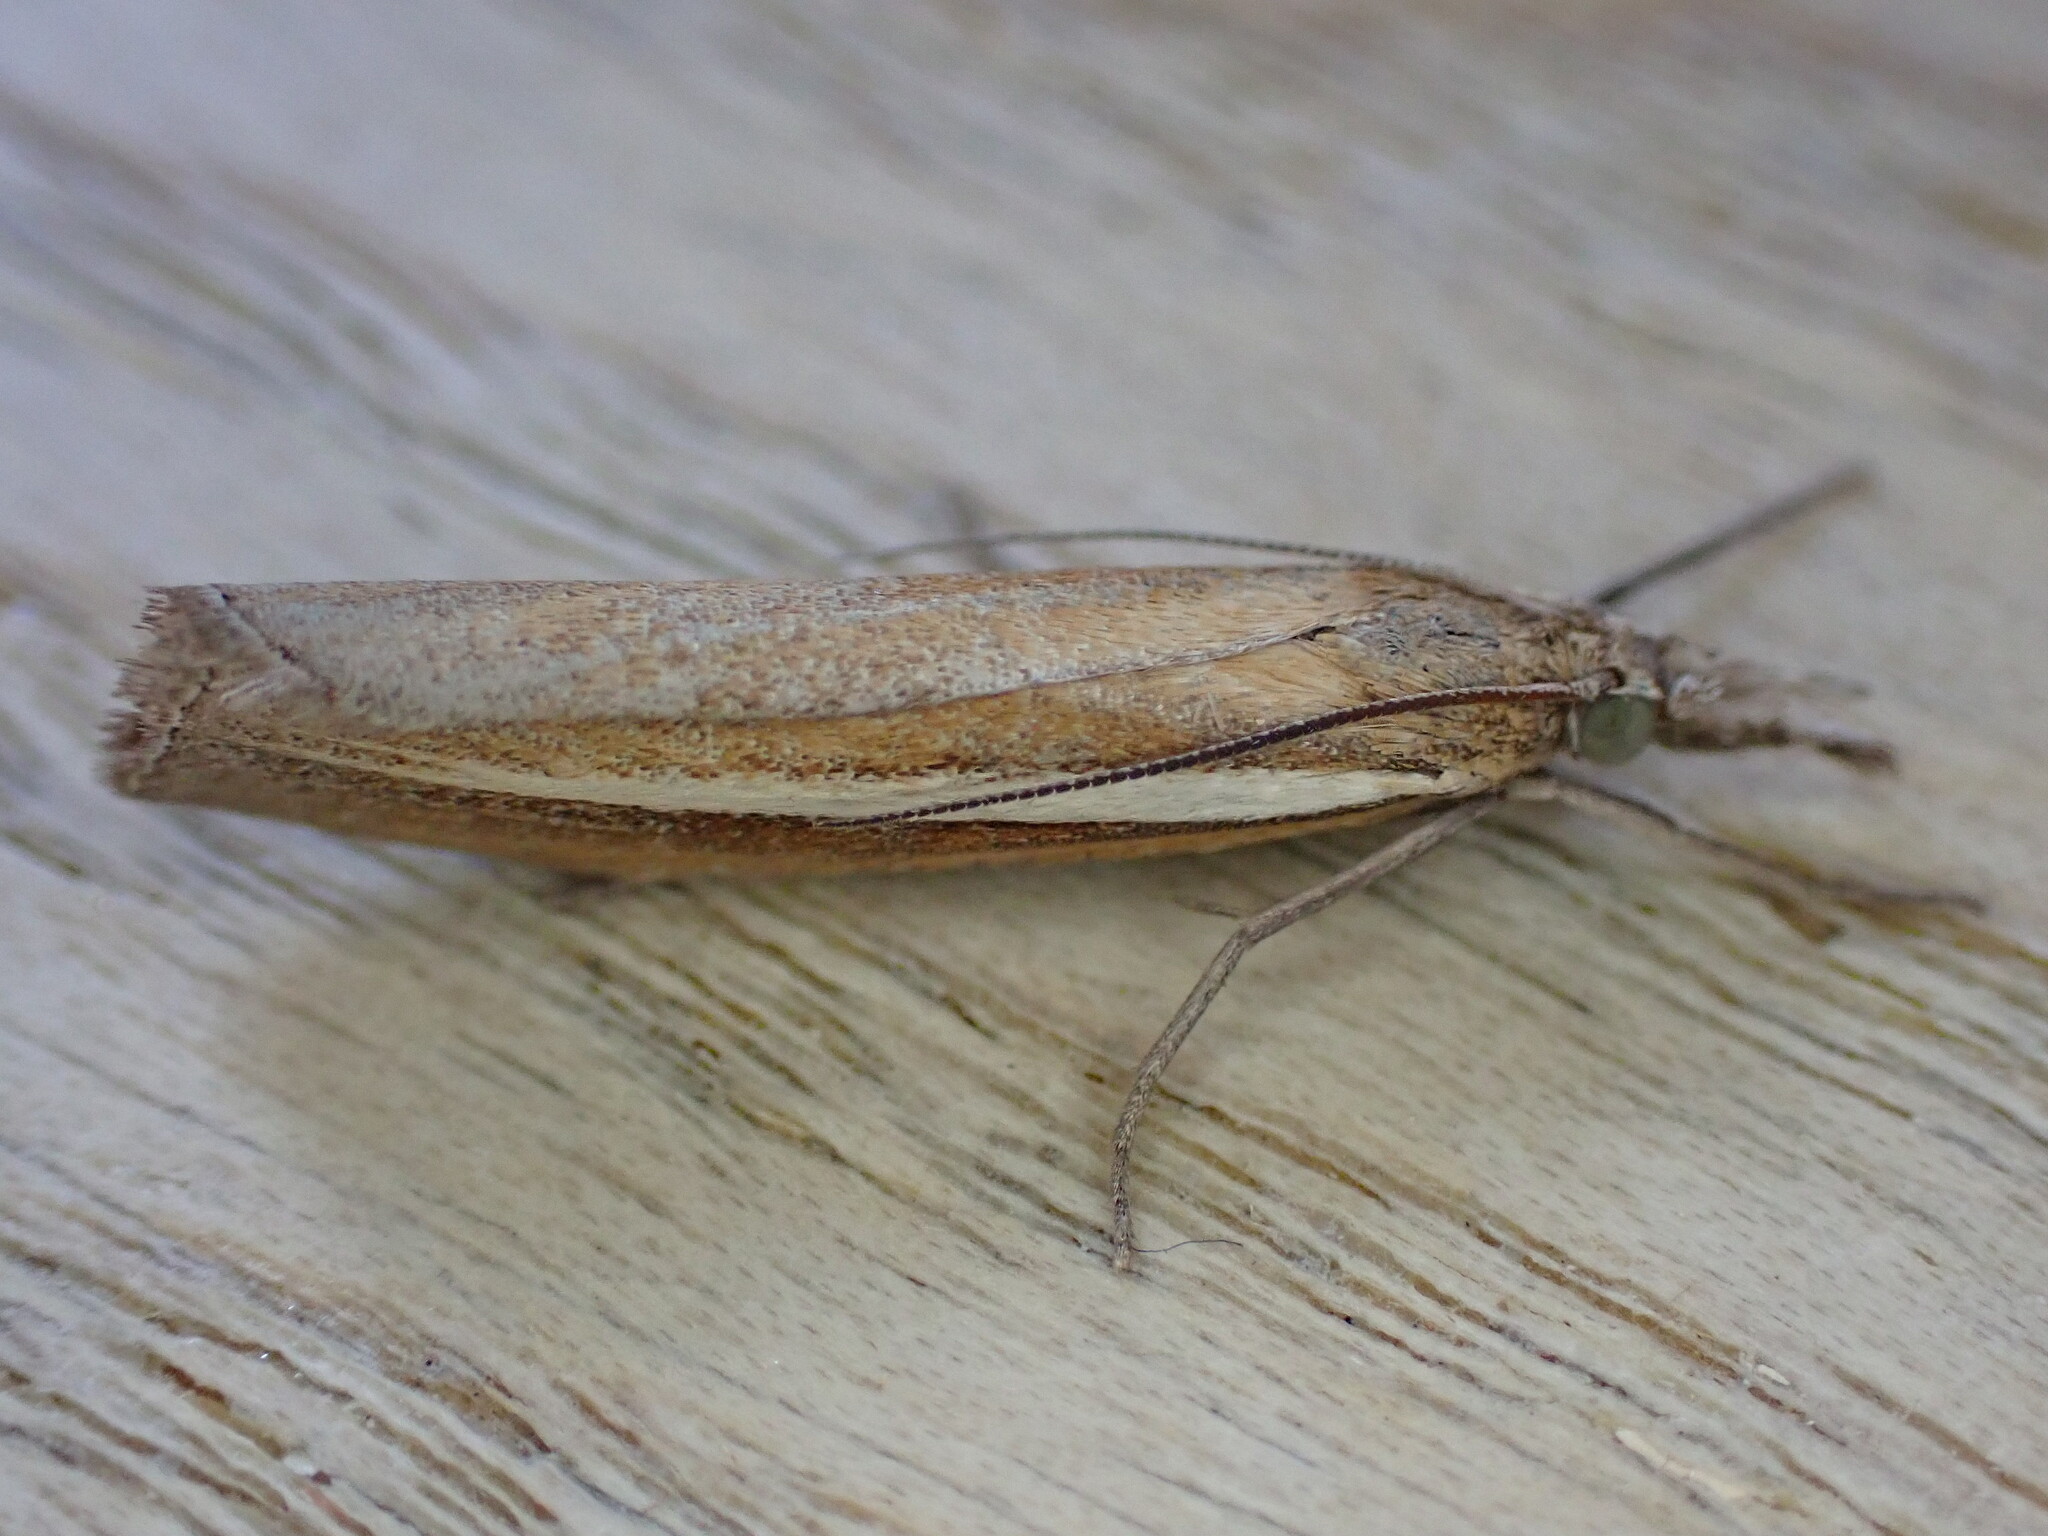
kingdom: Animalia
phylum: Arthropoda
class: Insecta
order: Lepidoptera
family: Crambidae
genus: Agriphila
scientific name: Agriphila tristellus
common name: Common grass-veneer
